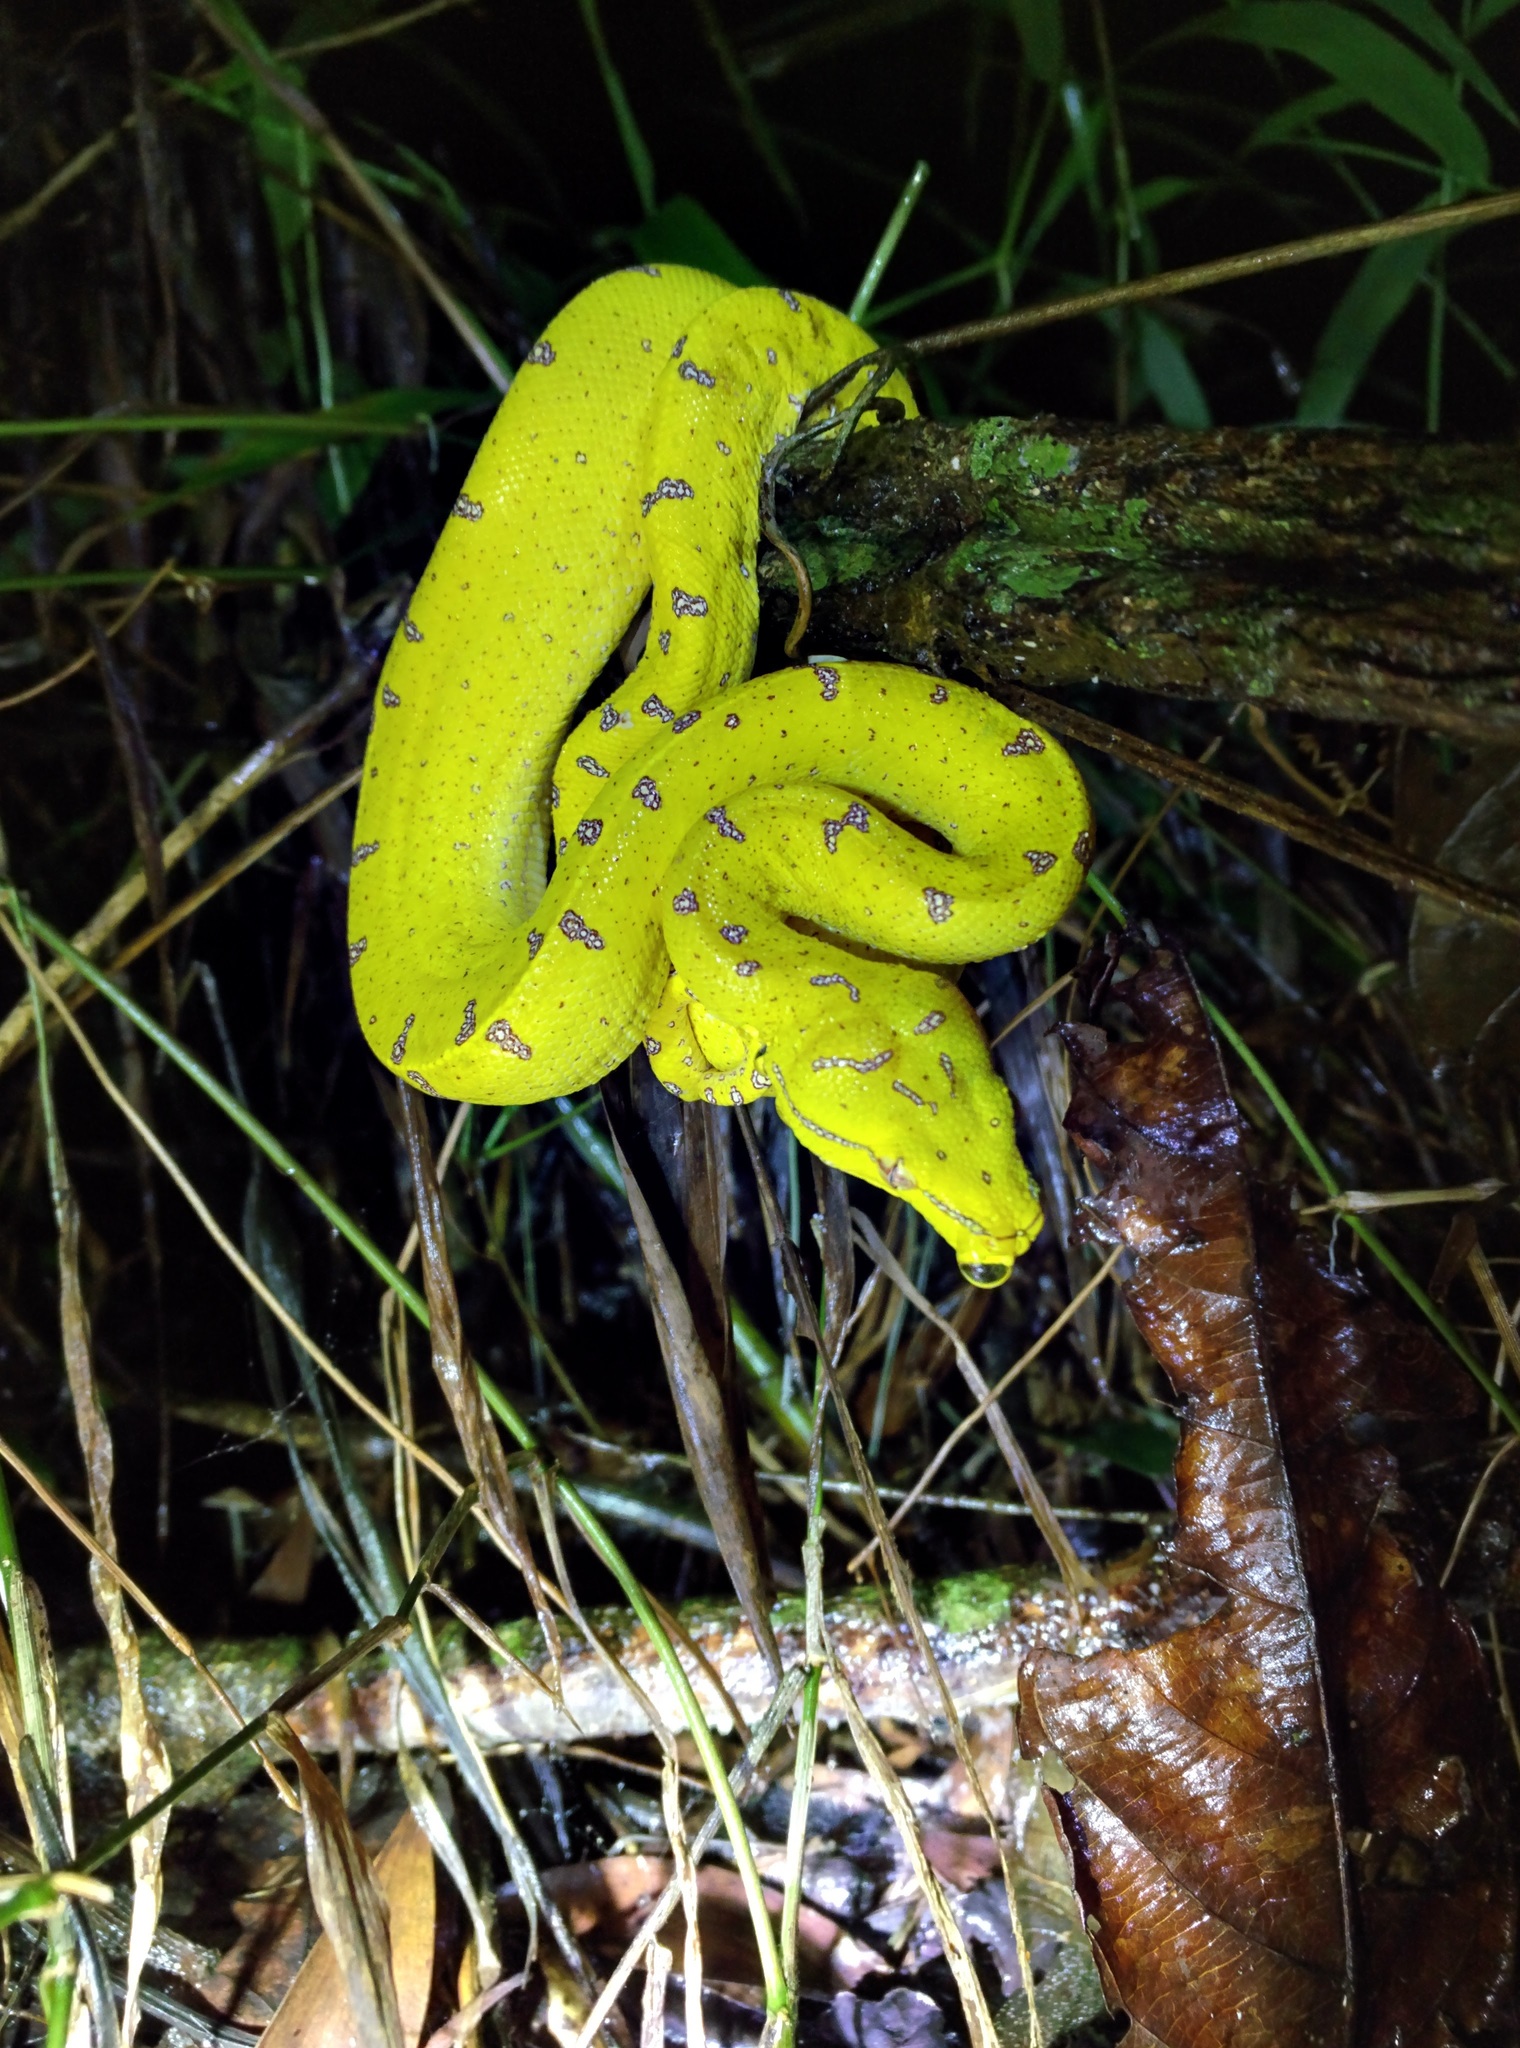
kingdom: Animalia
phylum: Chordata
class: Squamata
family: Pythonidae
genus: Morelia
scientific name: Morelia viridis
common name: Green tree python
